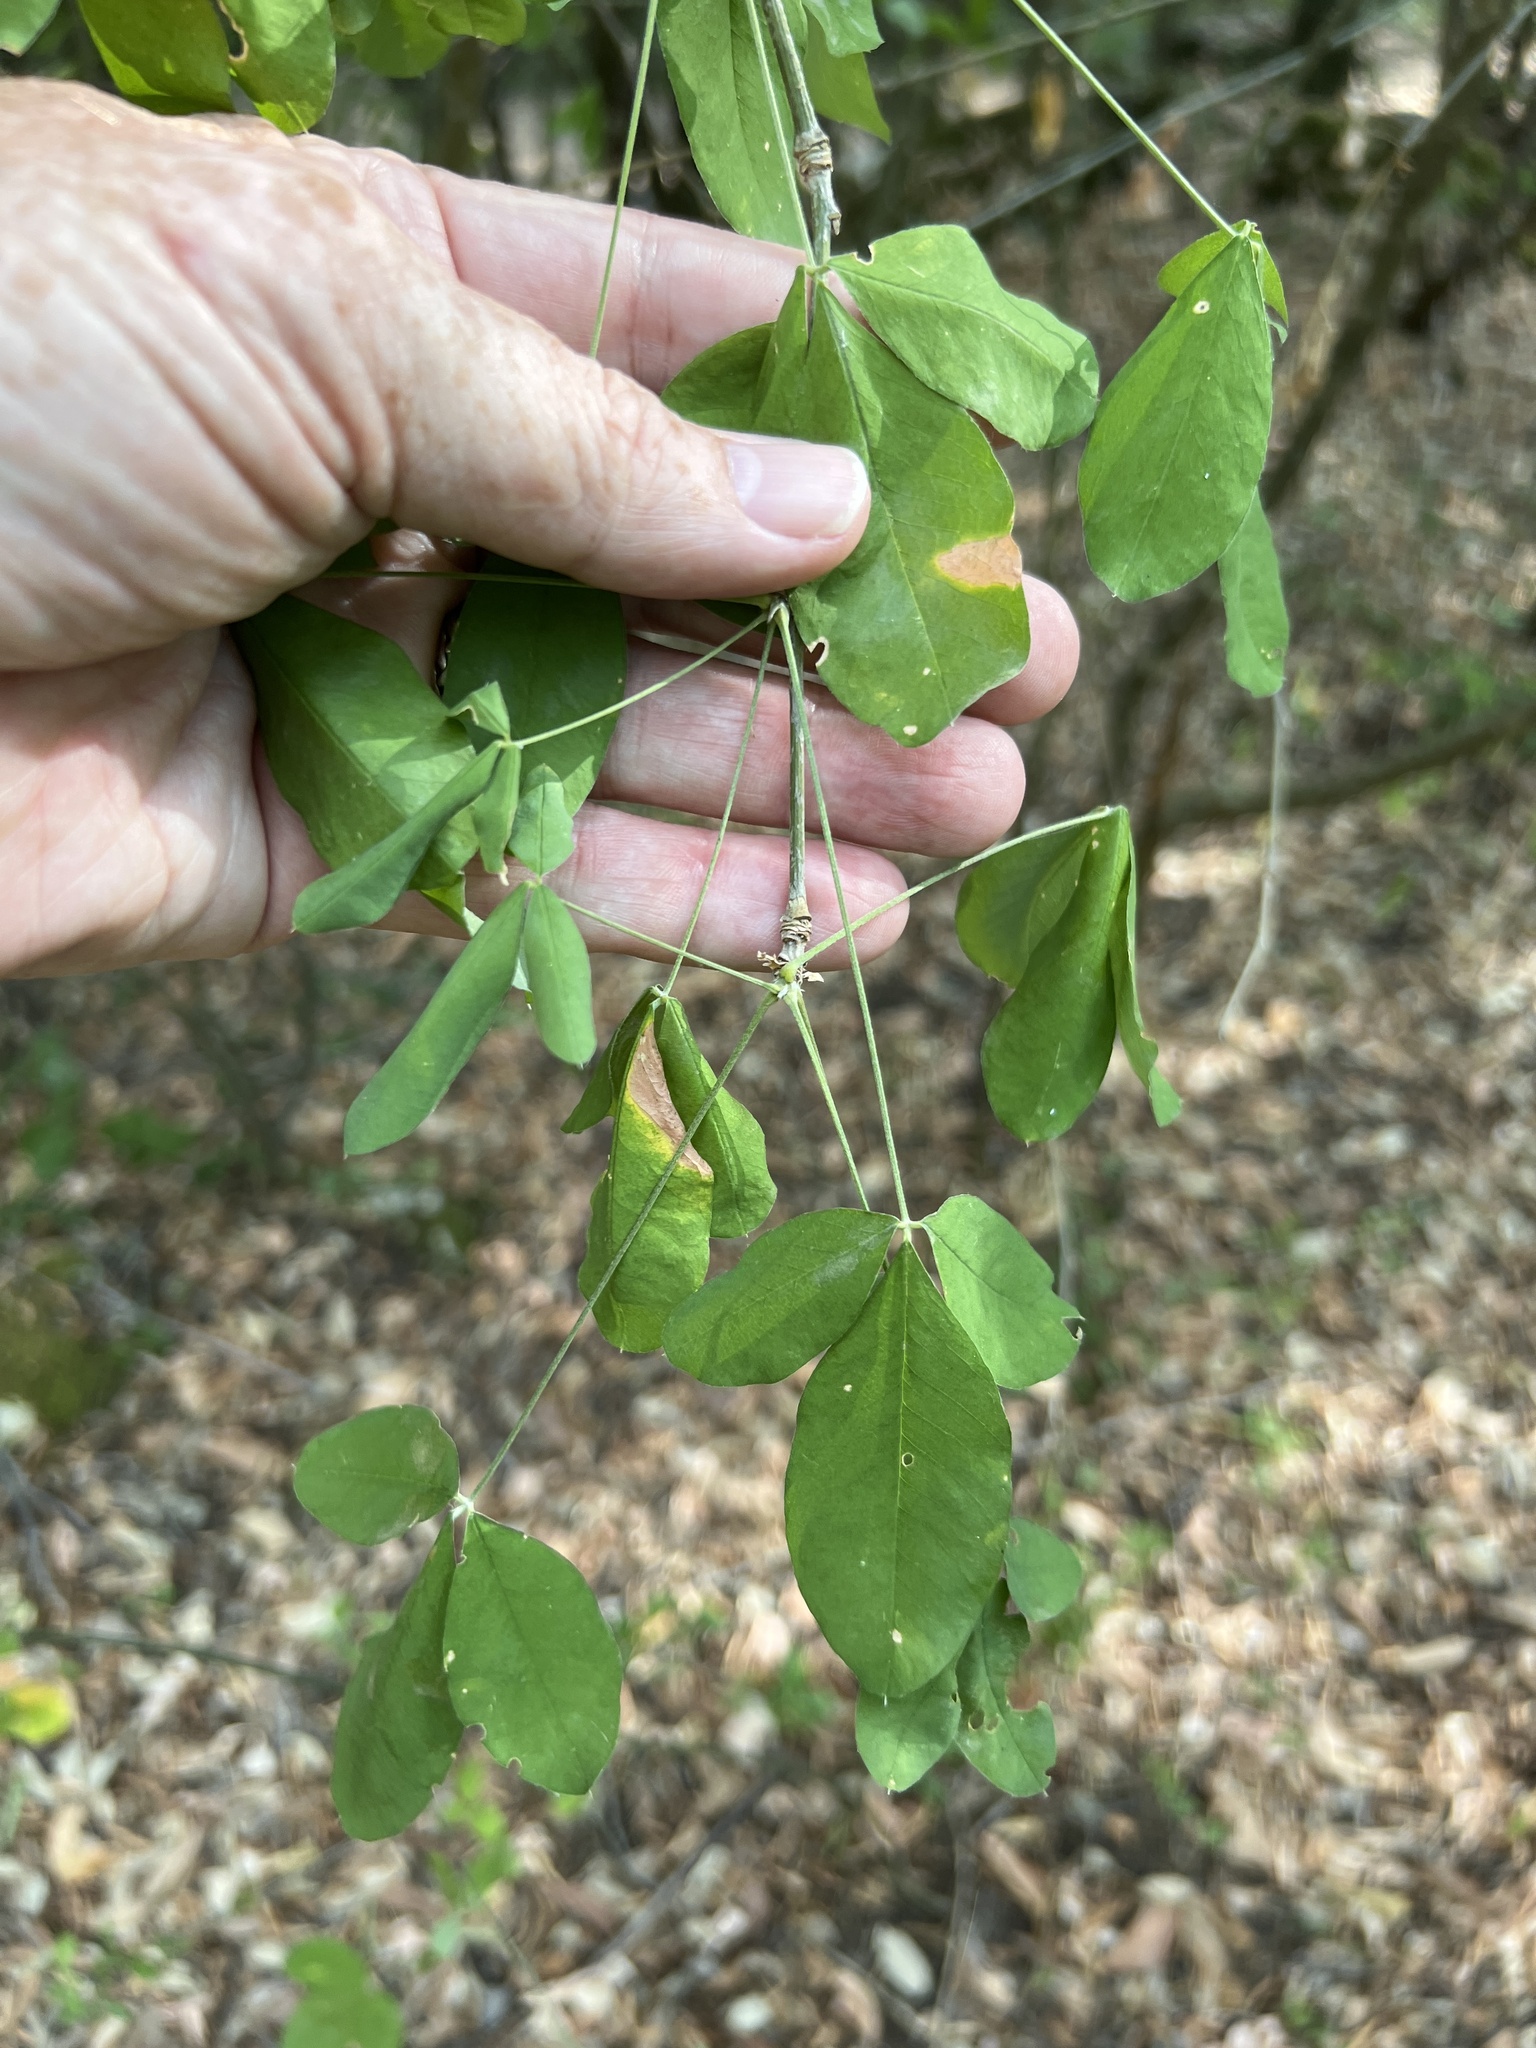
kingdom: Plantae
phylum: Tracheophyta
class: Magnoliopsida
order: Fabales
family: Fabaceae
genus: Laburnum
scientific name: Laburnum anagyroides
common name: Laburnum
